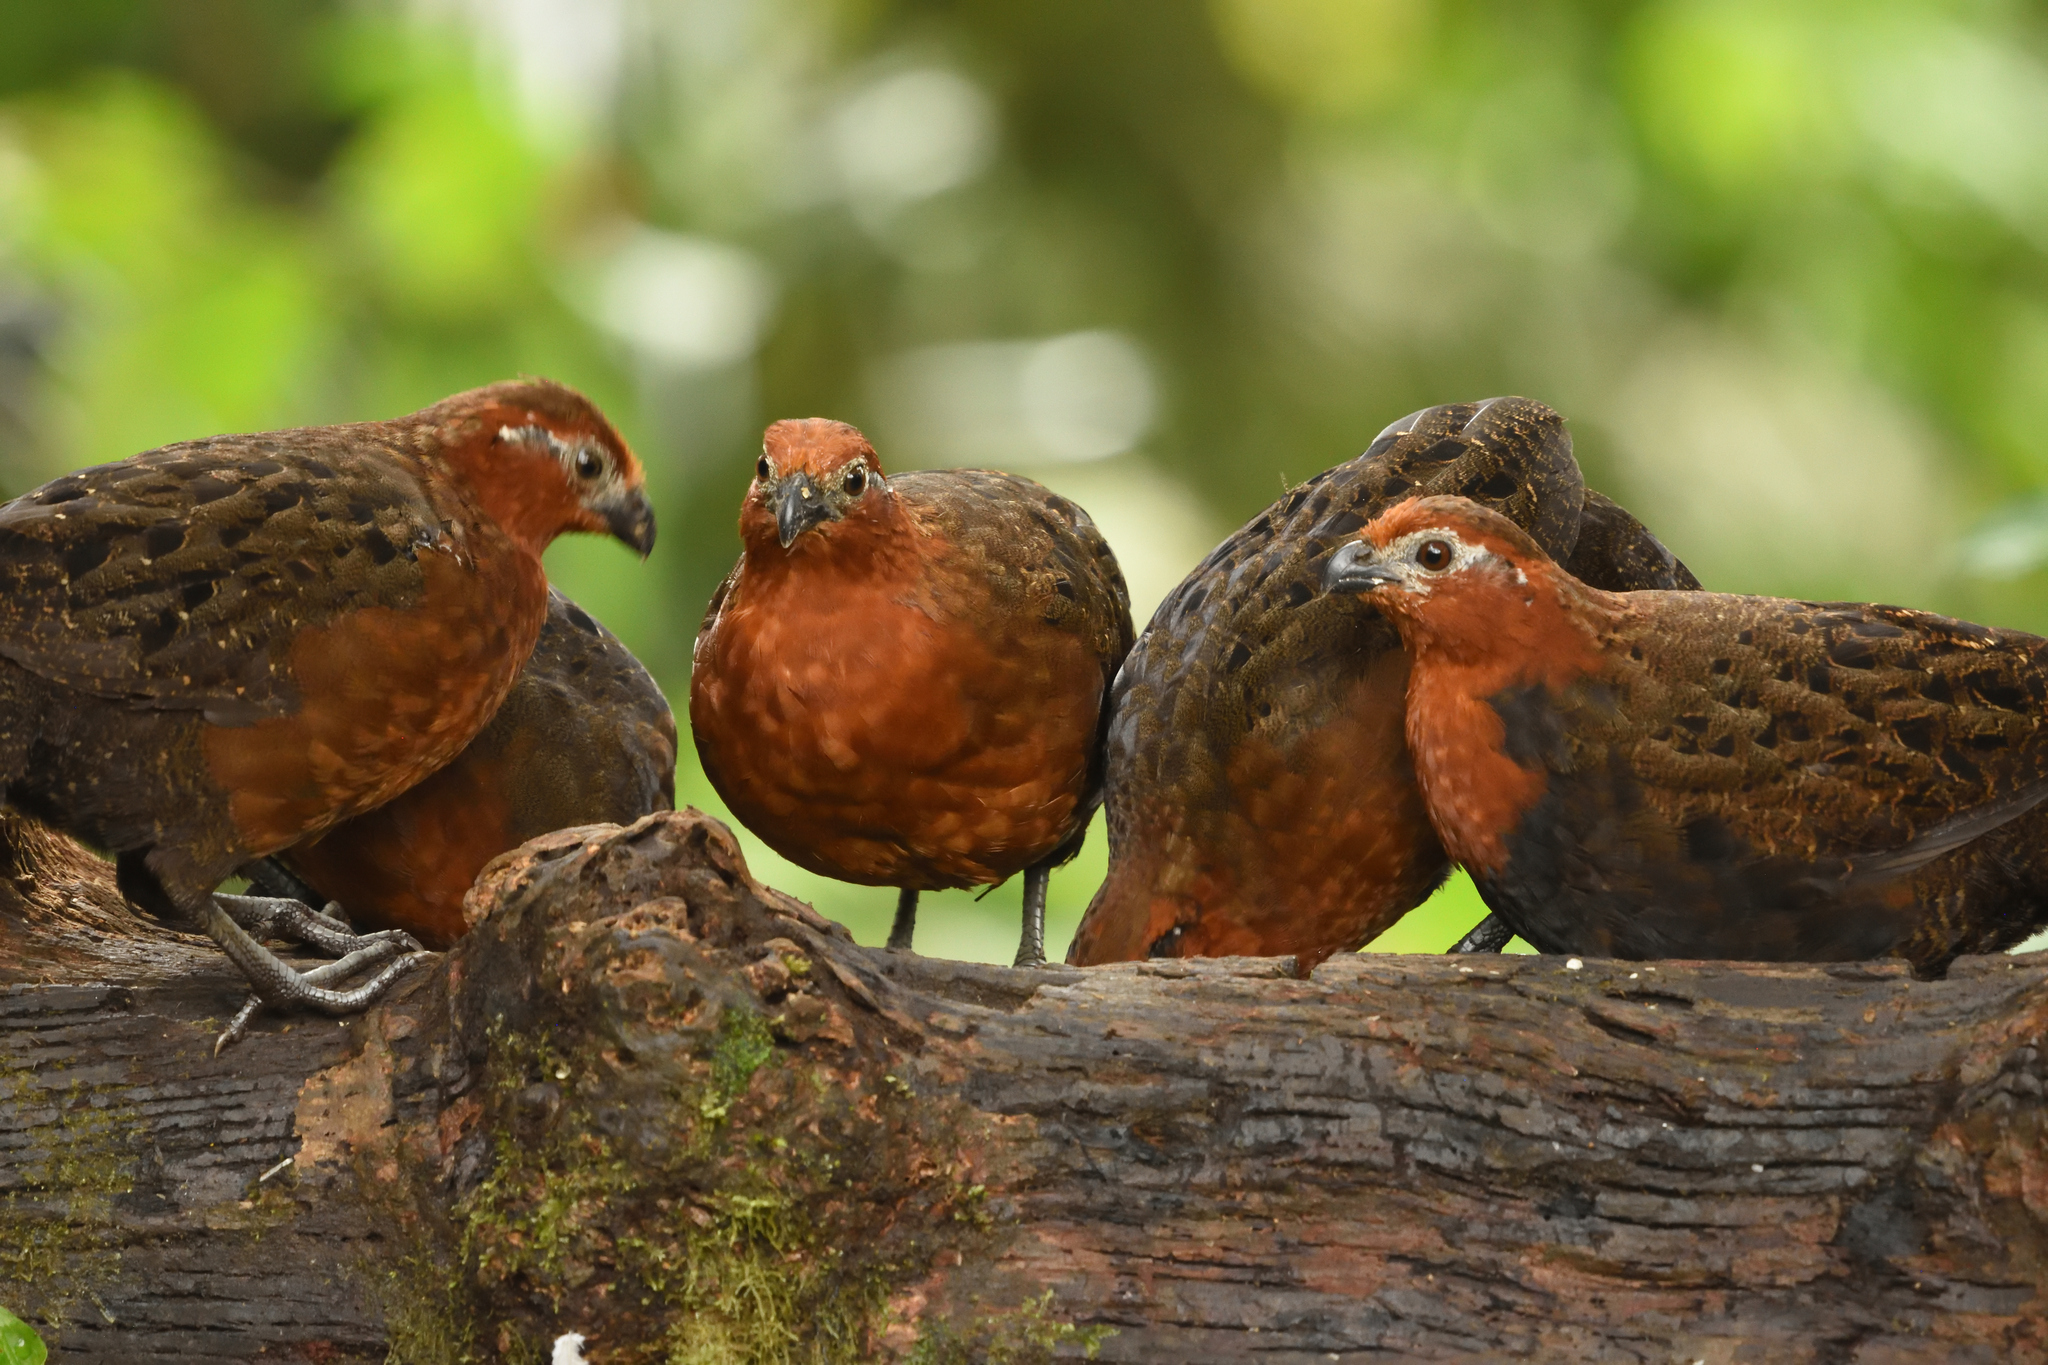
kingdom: Animalia
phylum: Chordata
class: Aves
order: Galliformes
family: Odontophoridae
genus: Odontophorus
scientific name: Odontophorus hyperythrus
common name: Chestnut wood-quail
